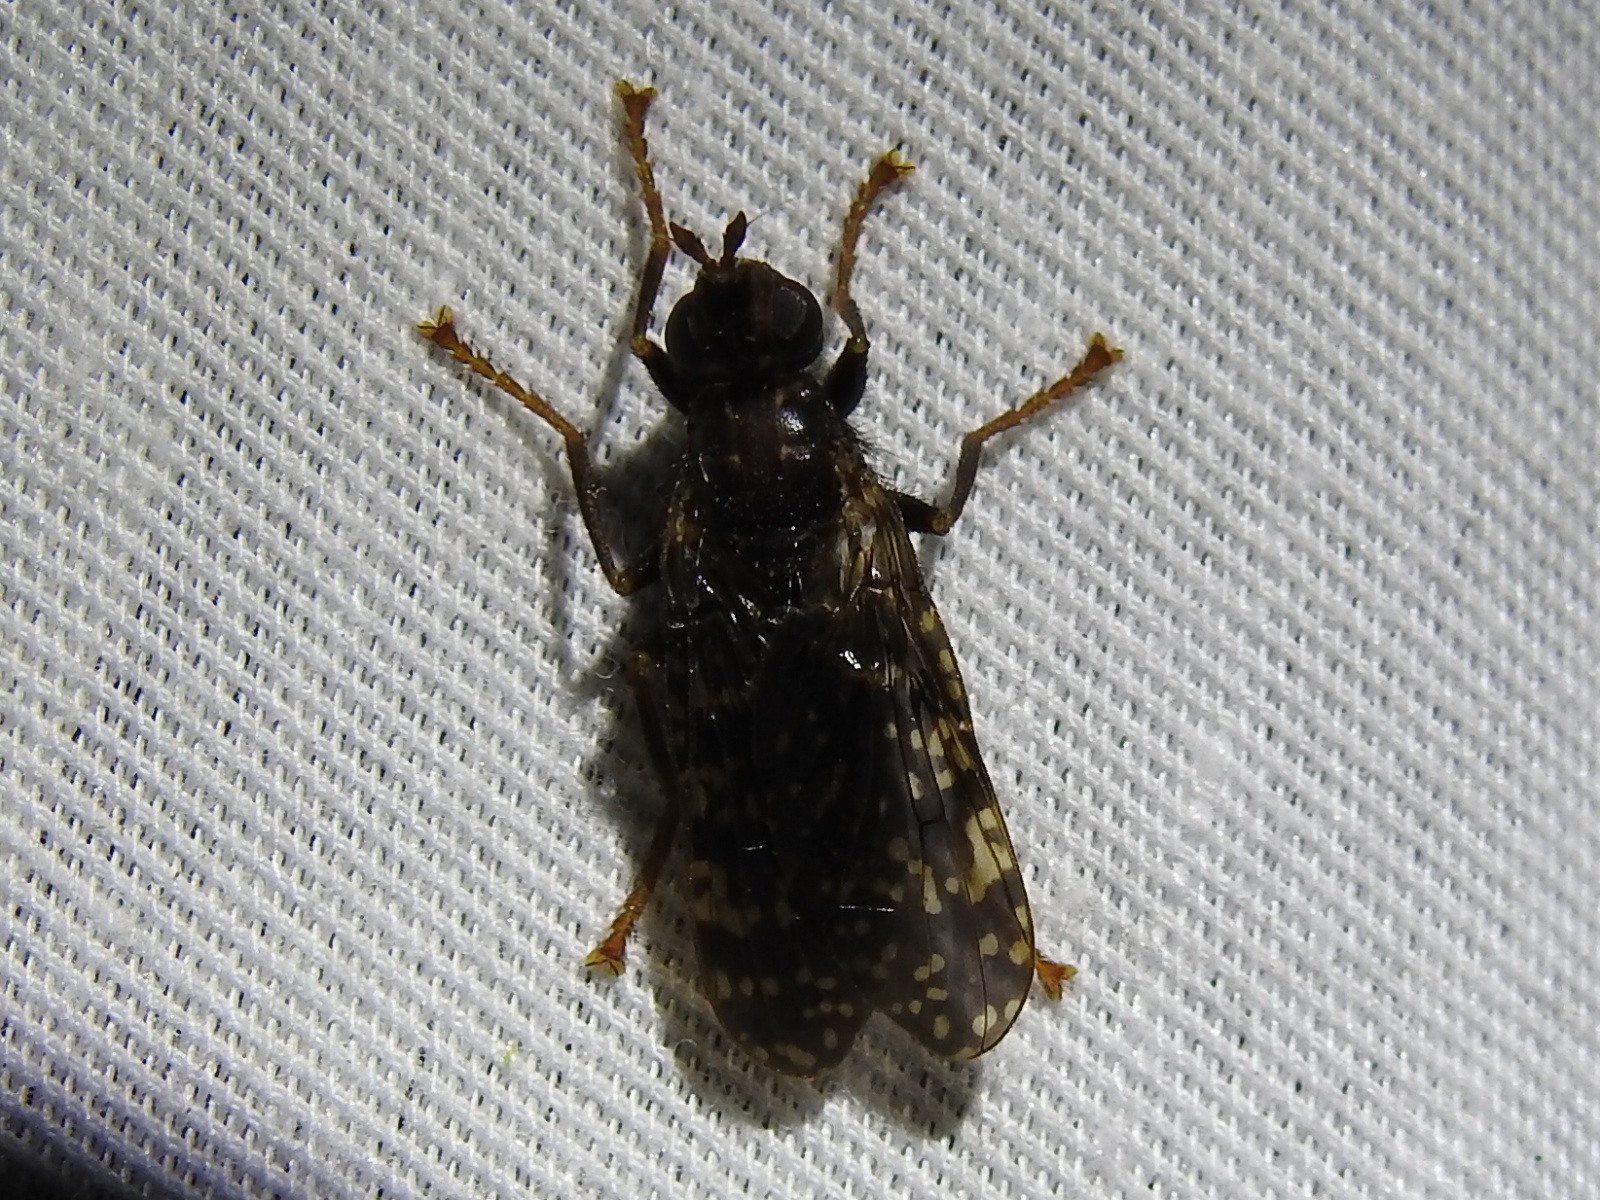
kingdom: Animalia
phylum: Arthropoda
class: Insecta
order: Diptera
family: Pyrgotidae
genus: Pyrgota
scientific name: Pyrgota valida
